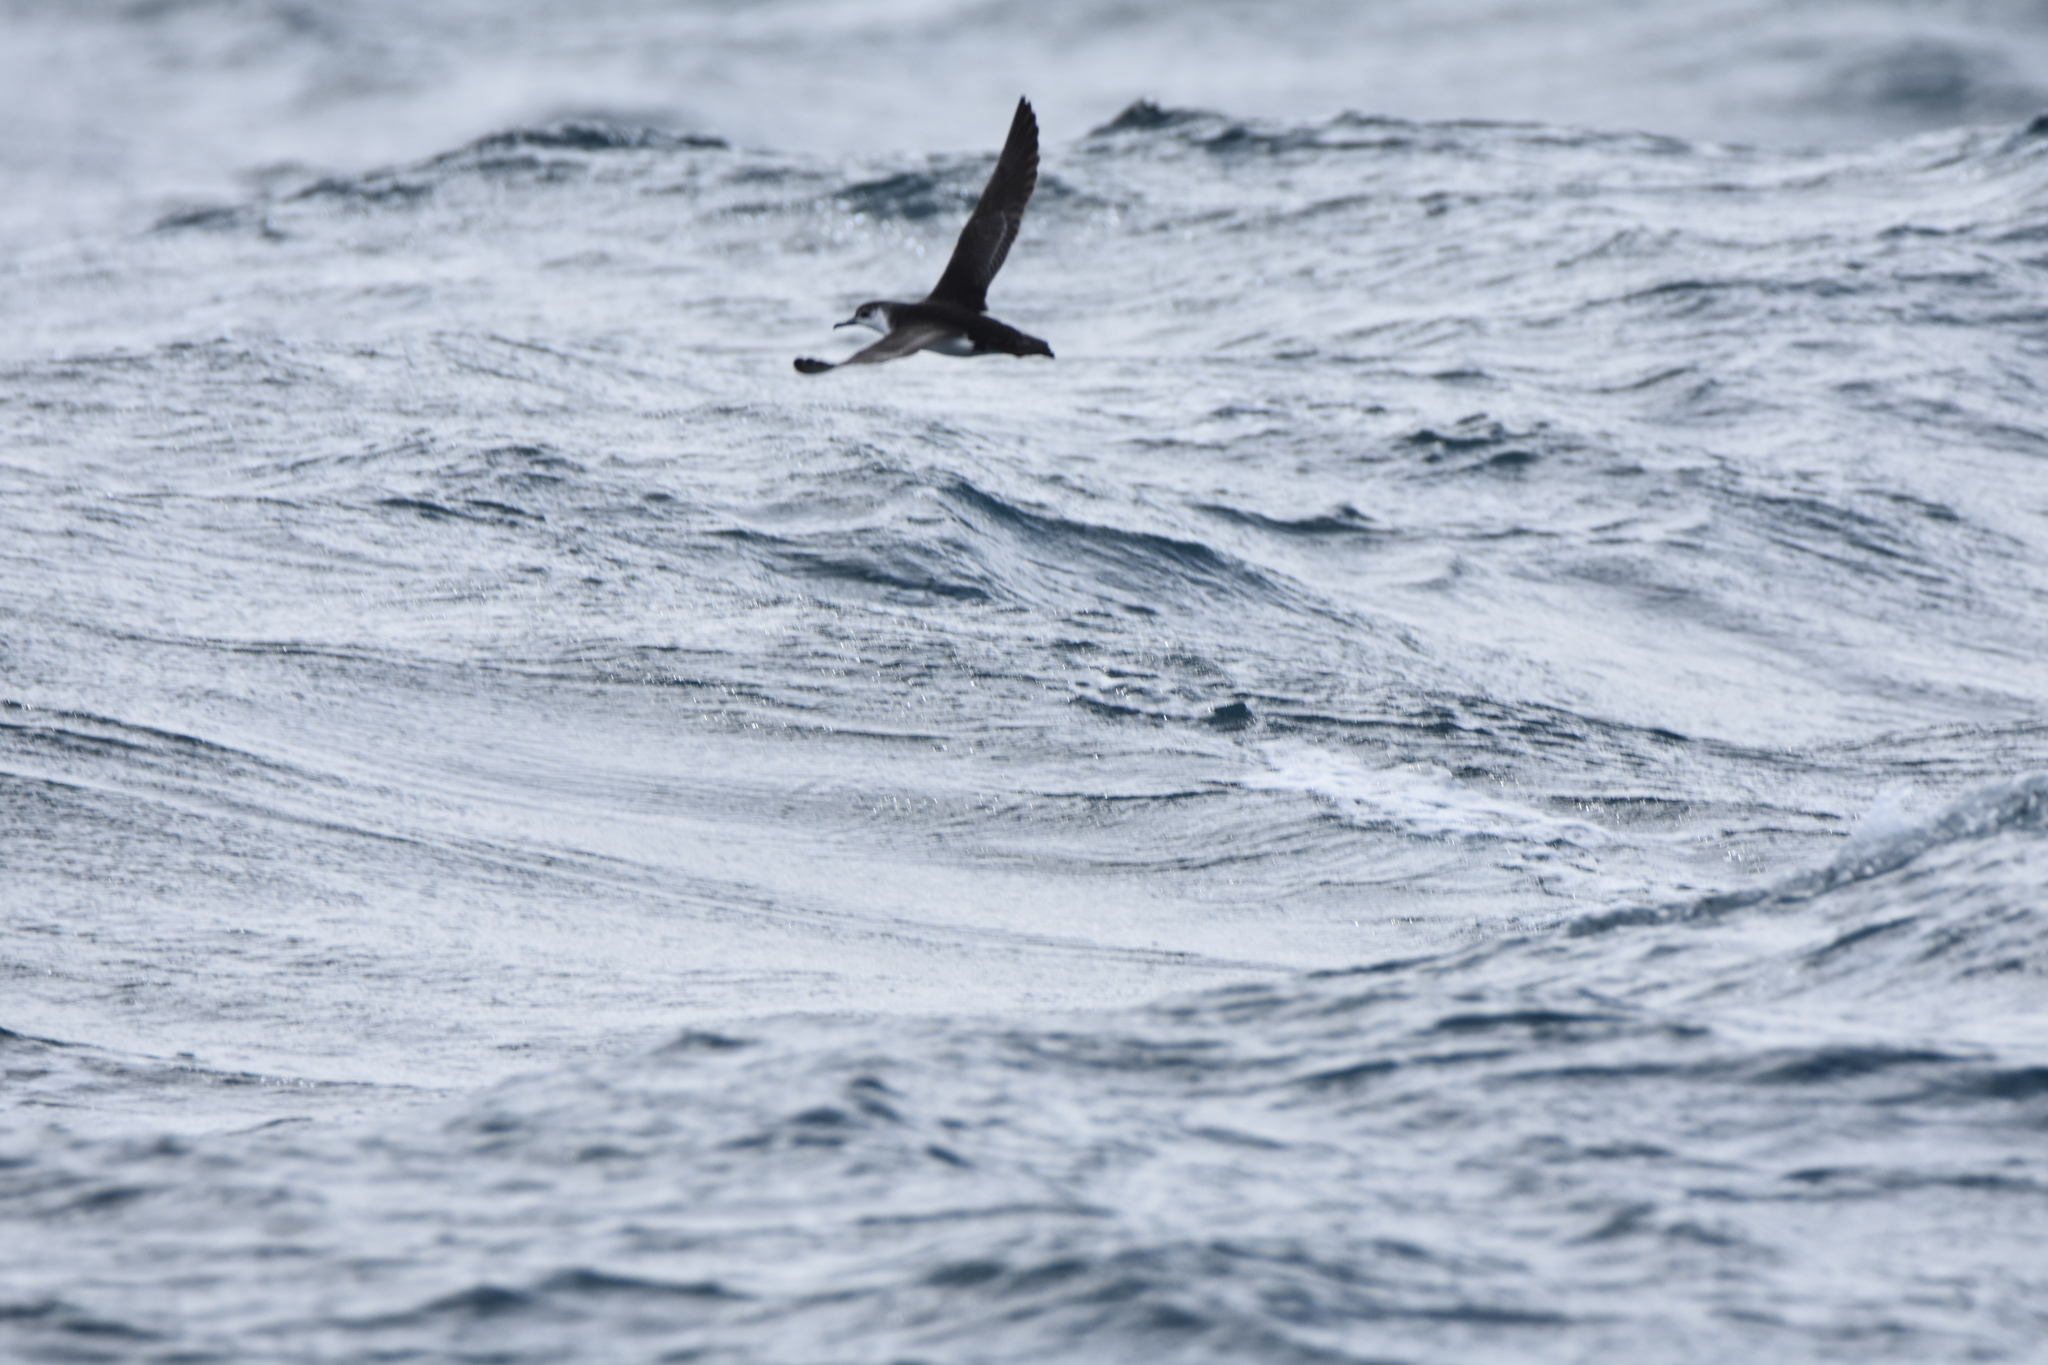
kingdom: Animalia
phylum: Chordata
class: Aves
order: Procellariiformes
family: Procellariidae
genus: Puffinus
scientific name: Puffinus assimilis
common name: Little shearwater
